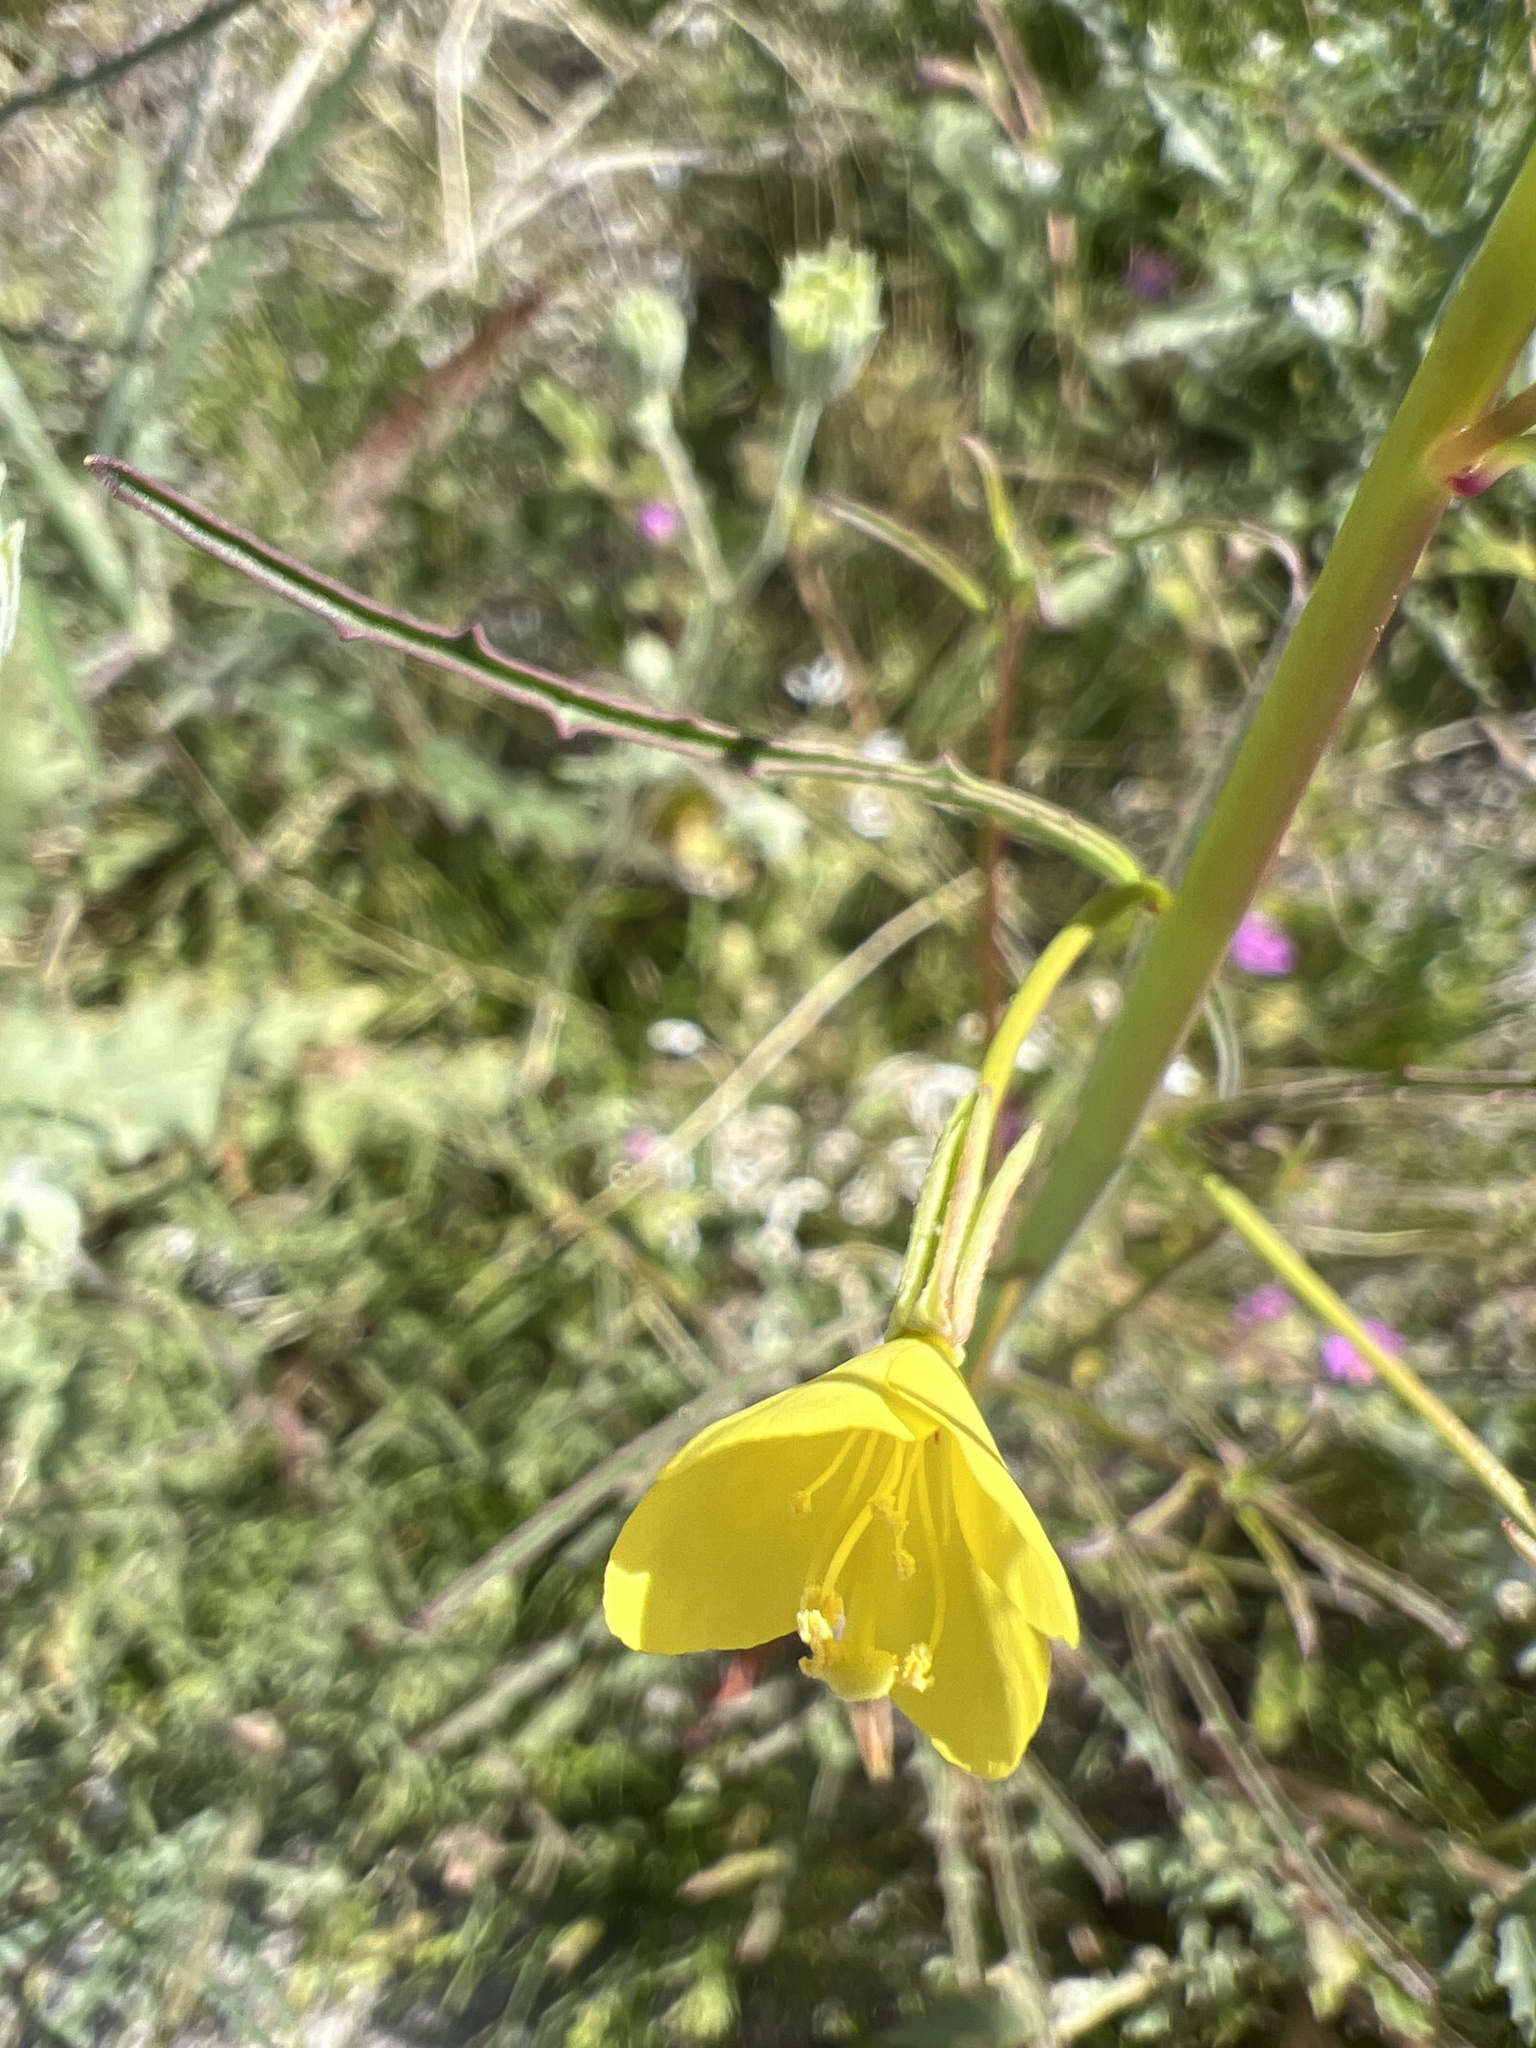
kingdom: Plantae
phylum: Tracheophyta
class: Magnoliopsida
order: Myrtales
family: Onagraceae
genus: Eulobus
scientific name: Eulobus californicus
